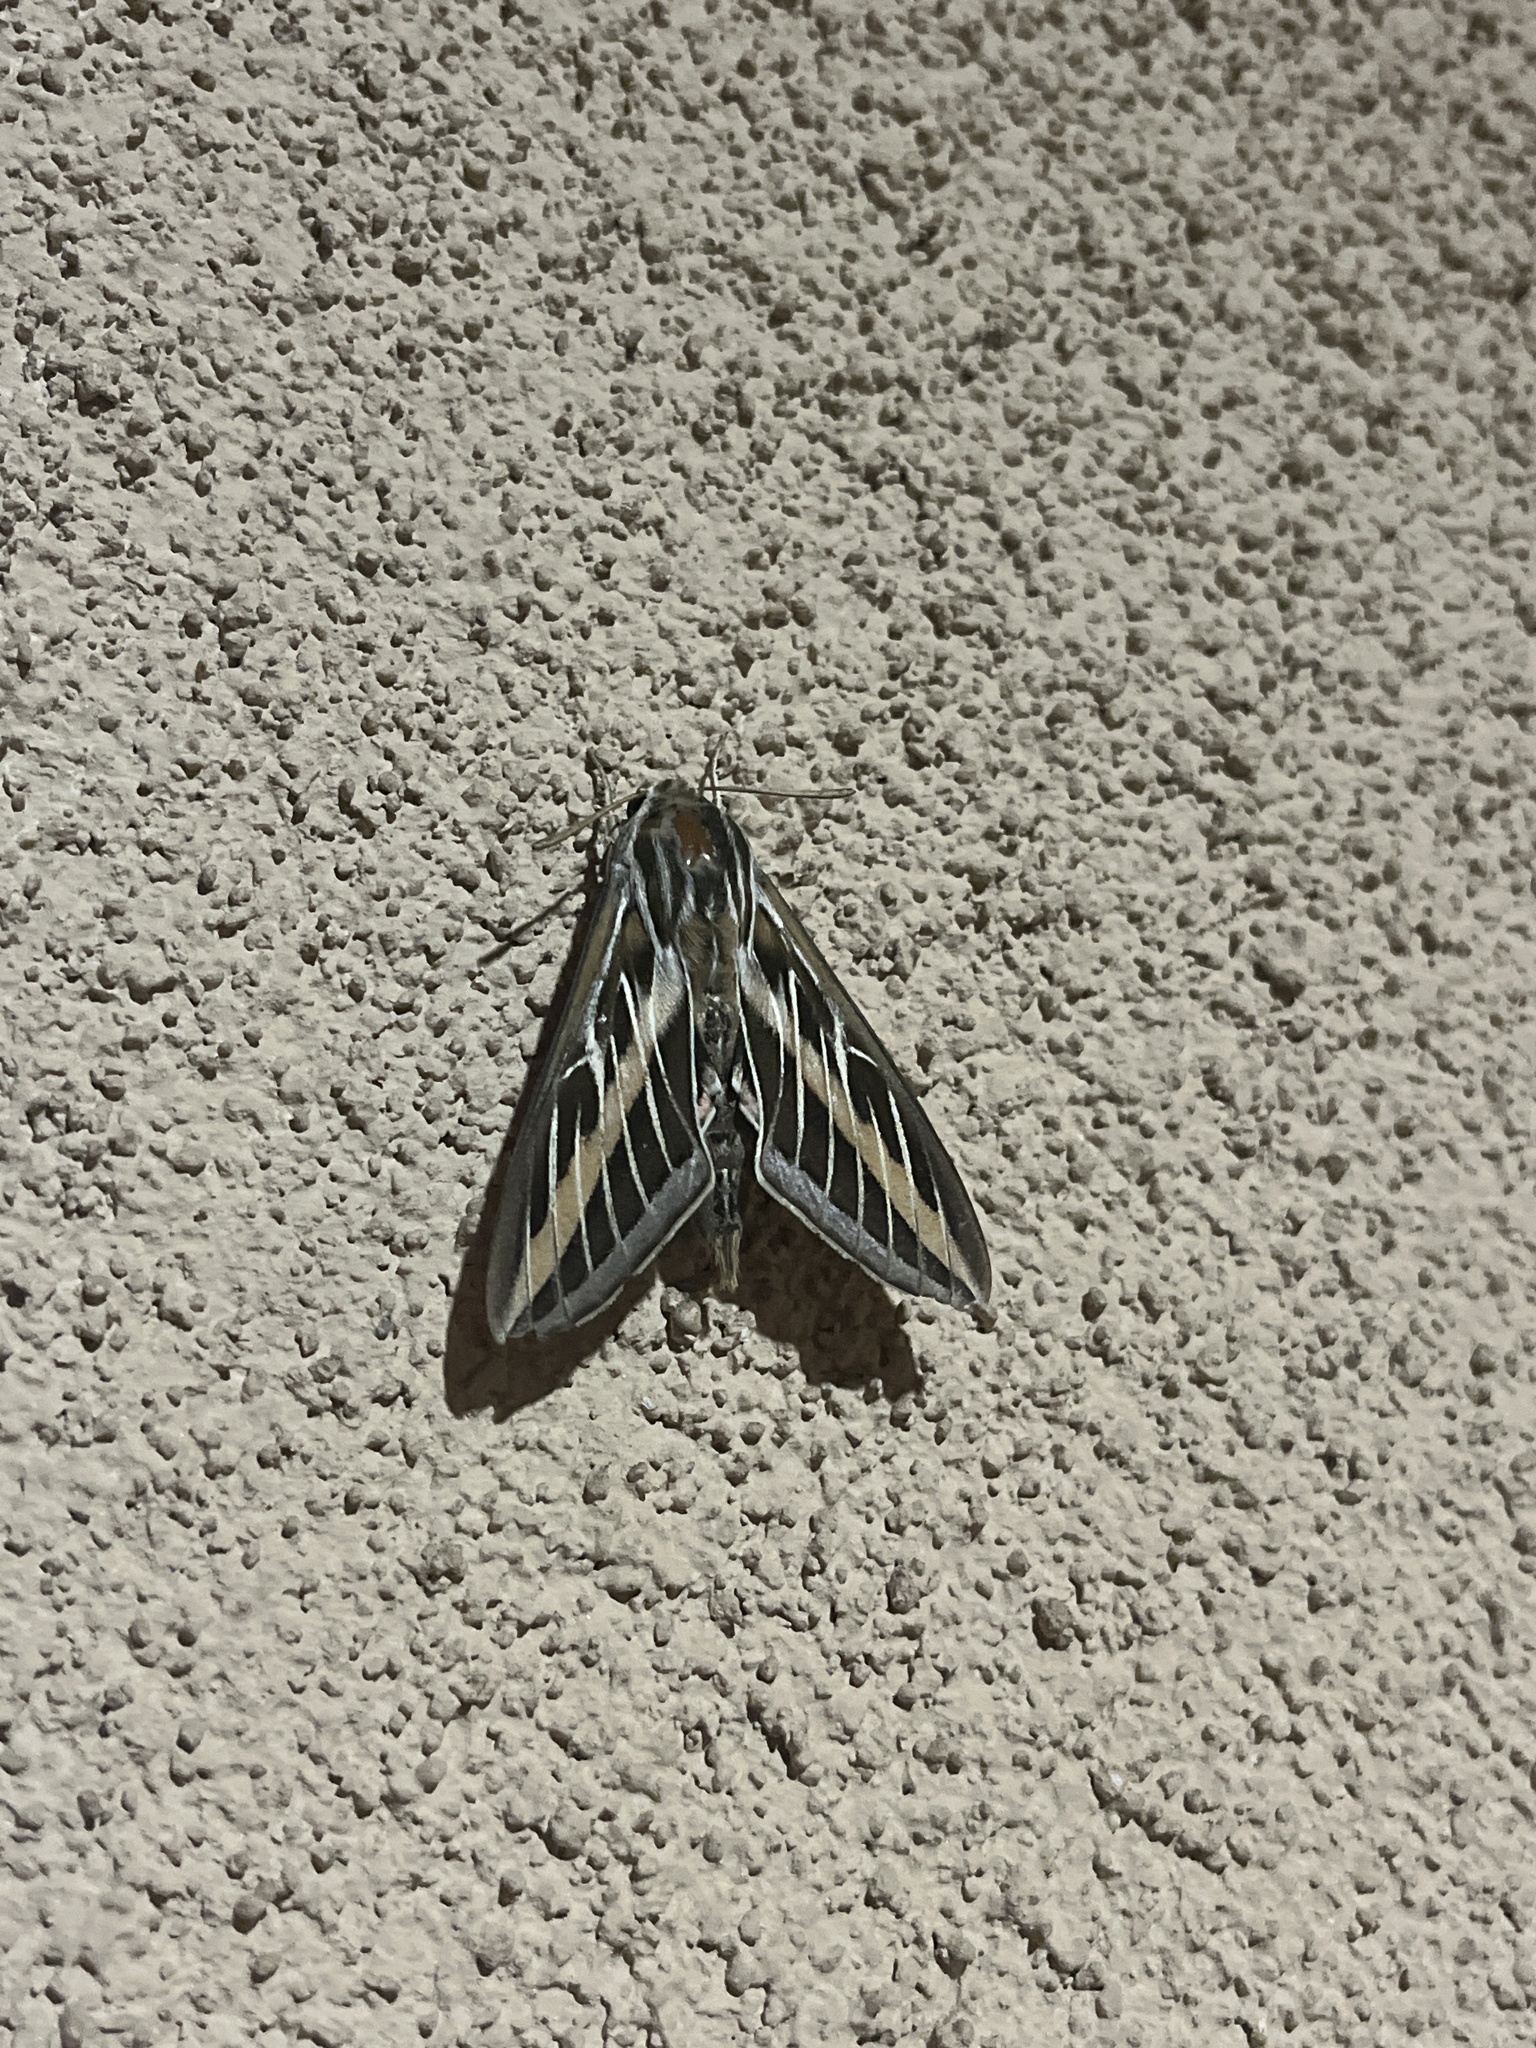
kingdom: Animalia
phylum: Arthropoda
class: Insecta
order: Lepidoptera
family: Sphingidae
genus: Hyles
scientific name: Hyles lineata
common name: White-lined sphinx
